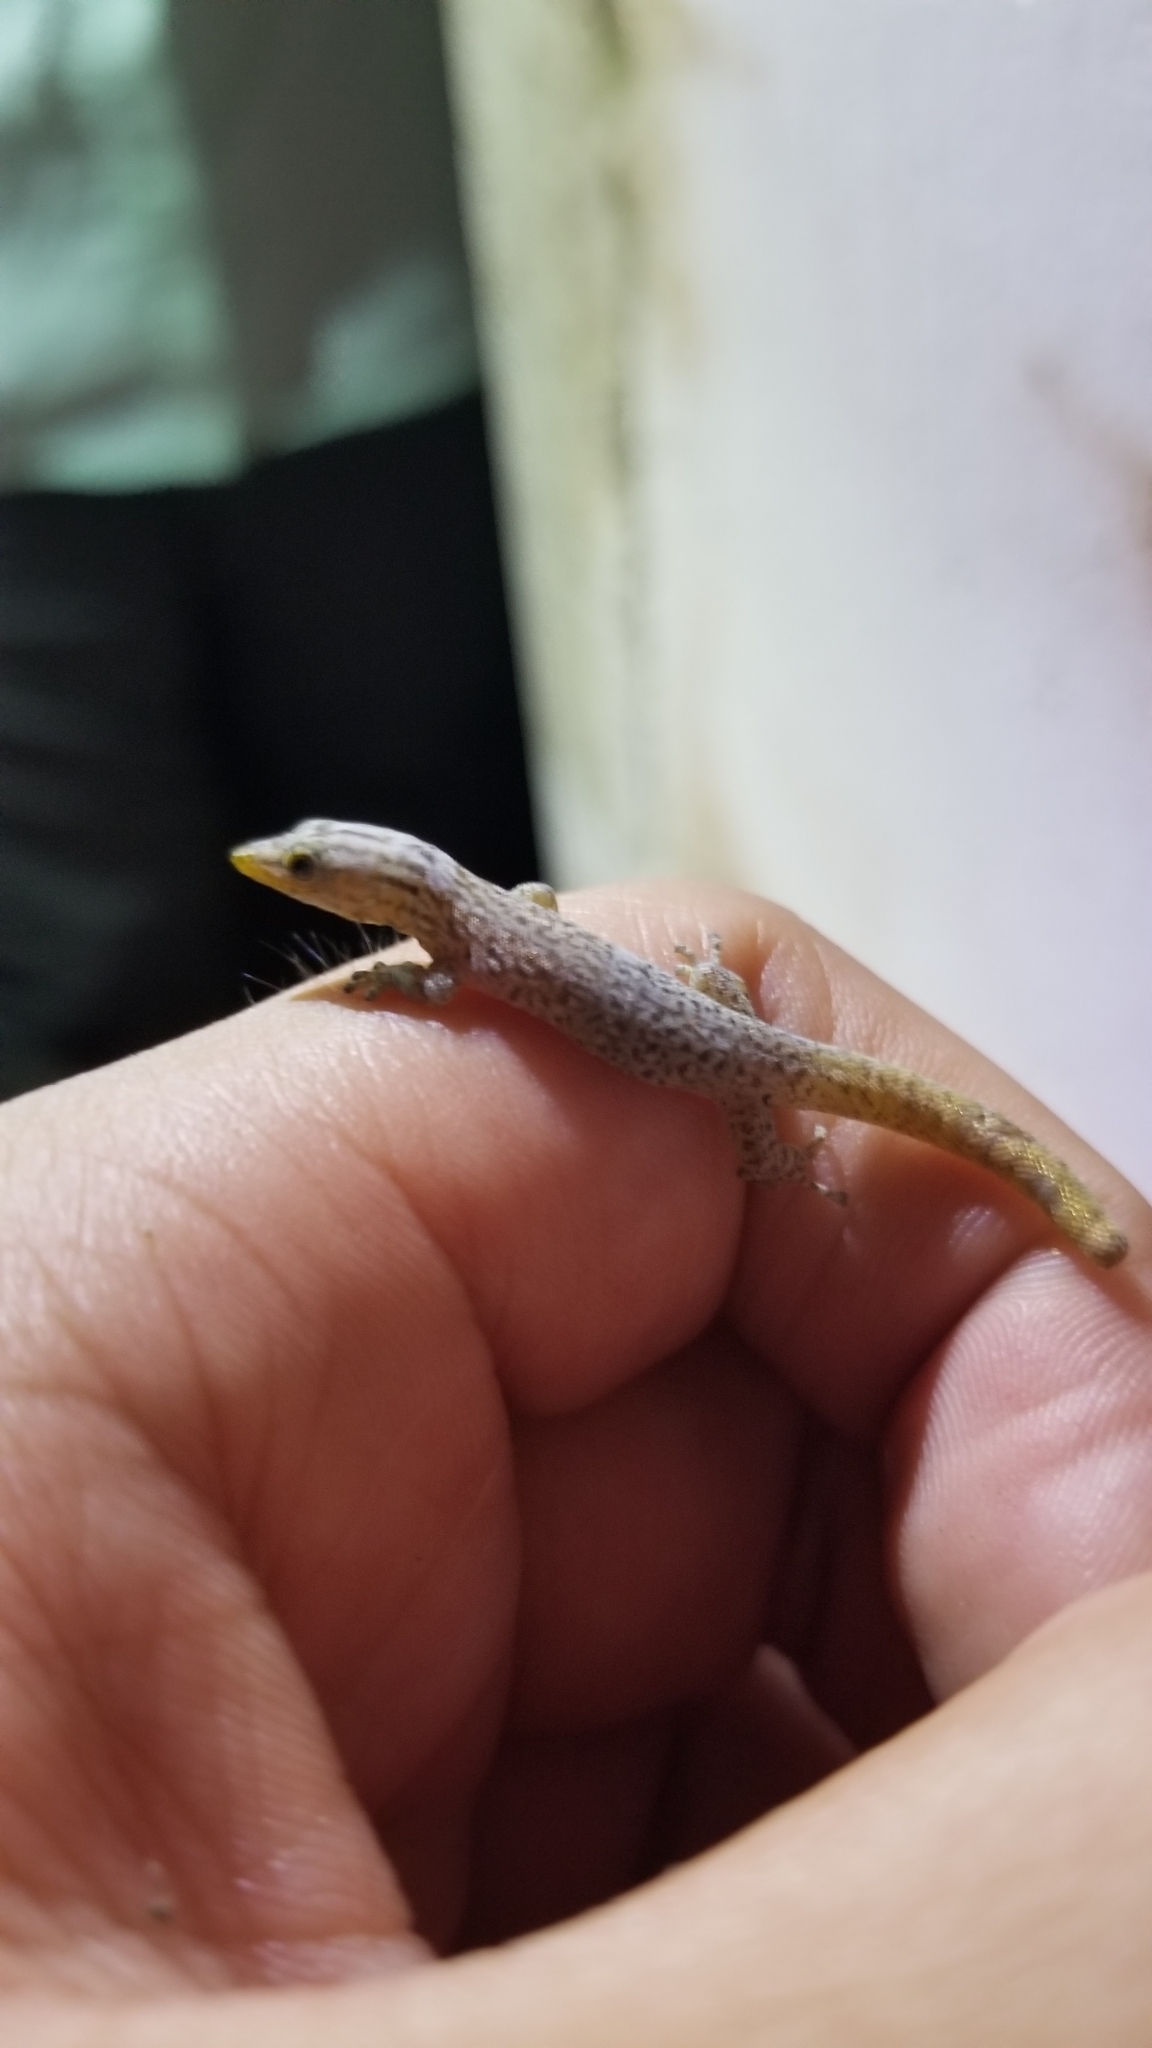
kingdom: Animalia
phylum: Chordata
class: Squamata
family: Sphaerodactylidae
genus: Sphaerodactylus
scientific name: Sphaerodactylus lineolatus
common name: Panama least gecko
